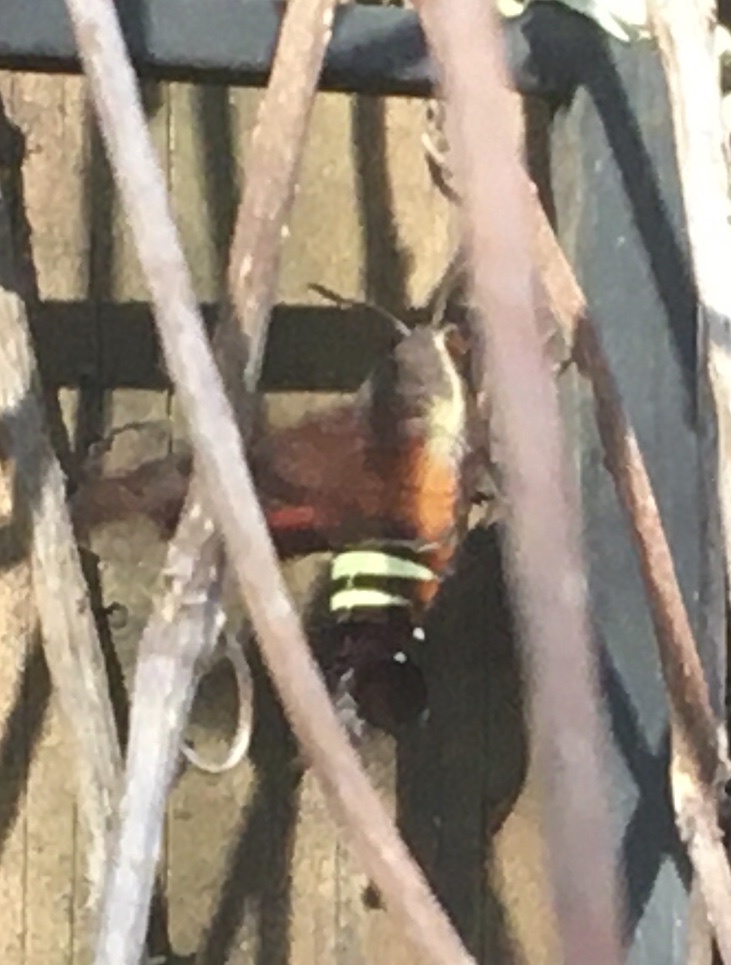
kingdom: Animalia
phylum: Arthropoda
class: Insecta
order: Lepidoptera
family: Sphingidae
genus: Amphion
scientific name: Amphion floridensis
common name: Nessus sphinx
